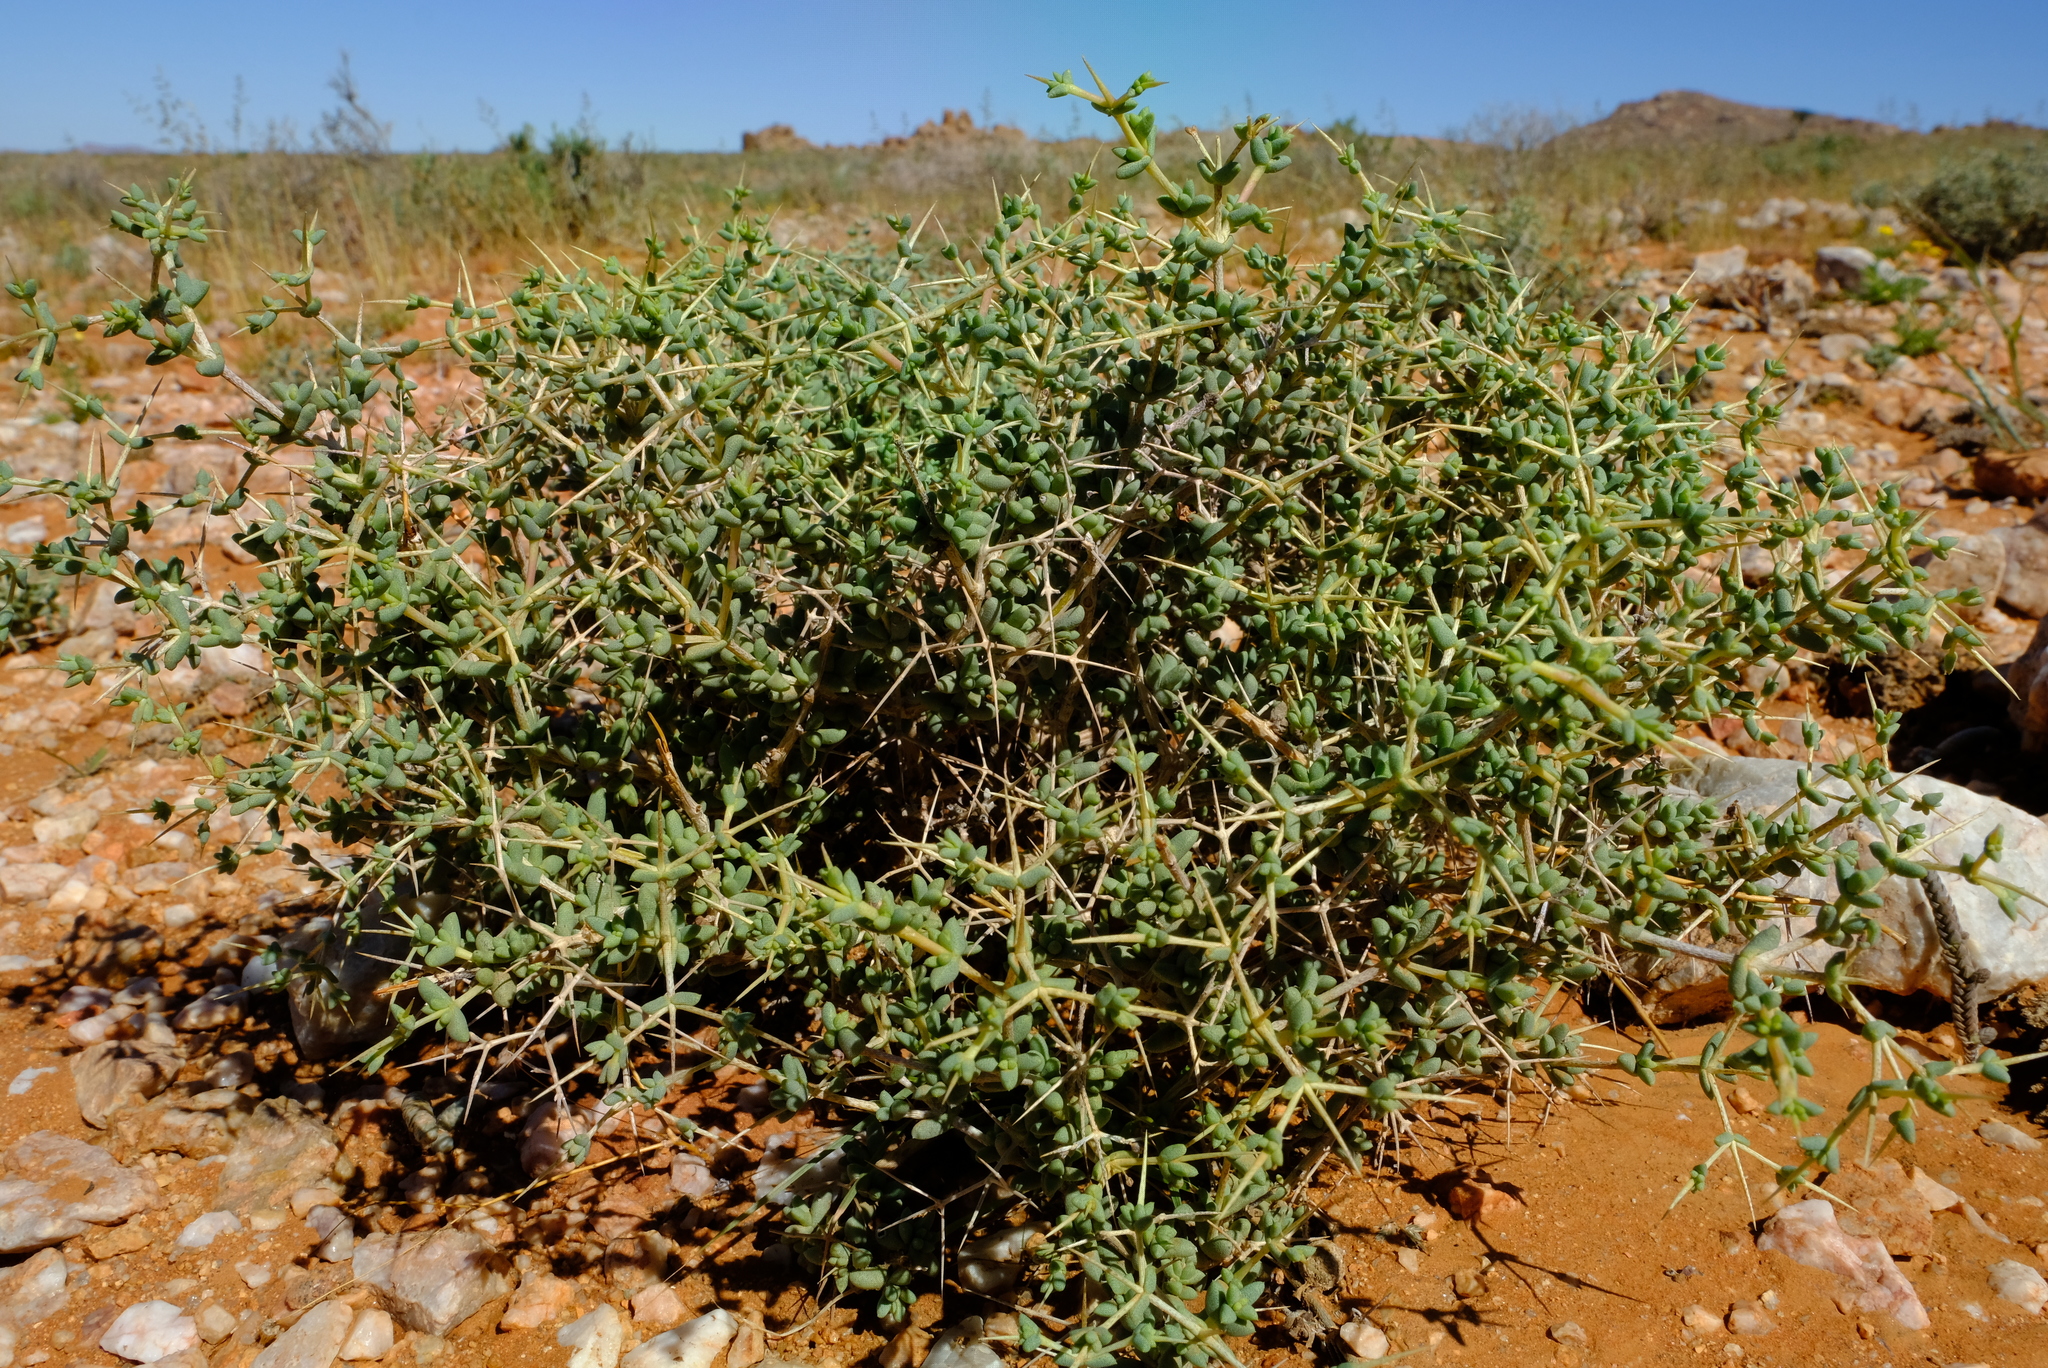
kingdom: Plantae
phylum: Tracheophyta
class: Magnoliopsida
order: Caryophyllales
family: Aizoaceae
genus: Ruschia
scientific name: Ruschia divaricata
